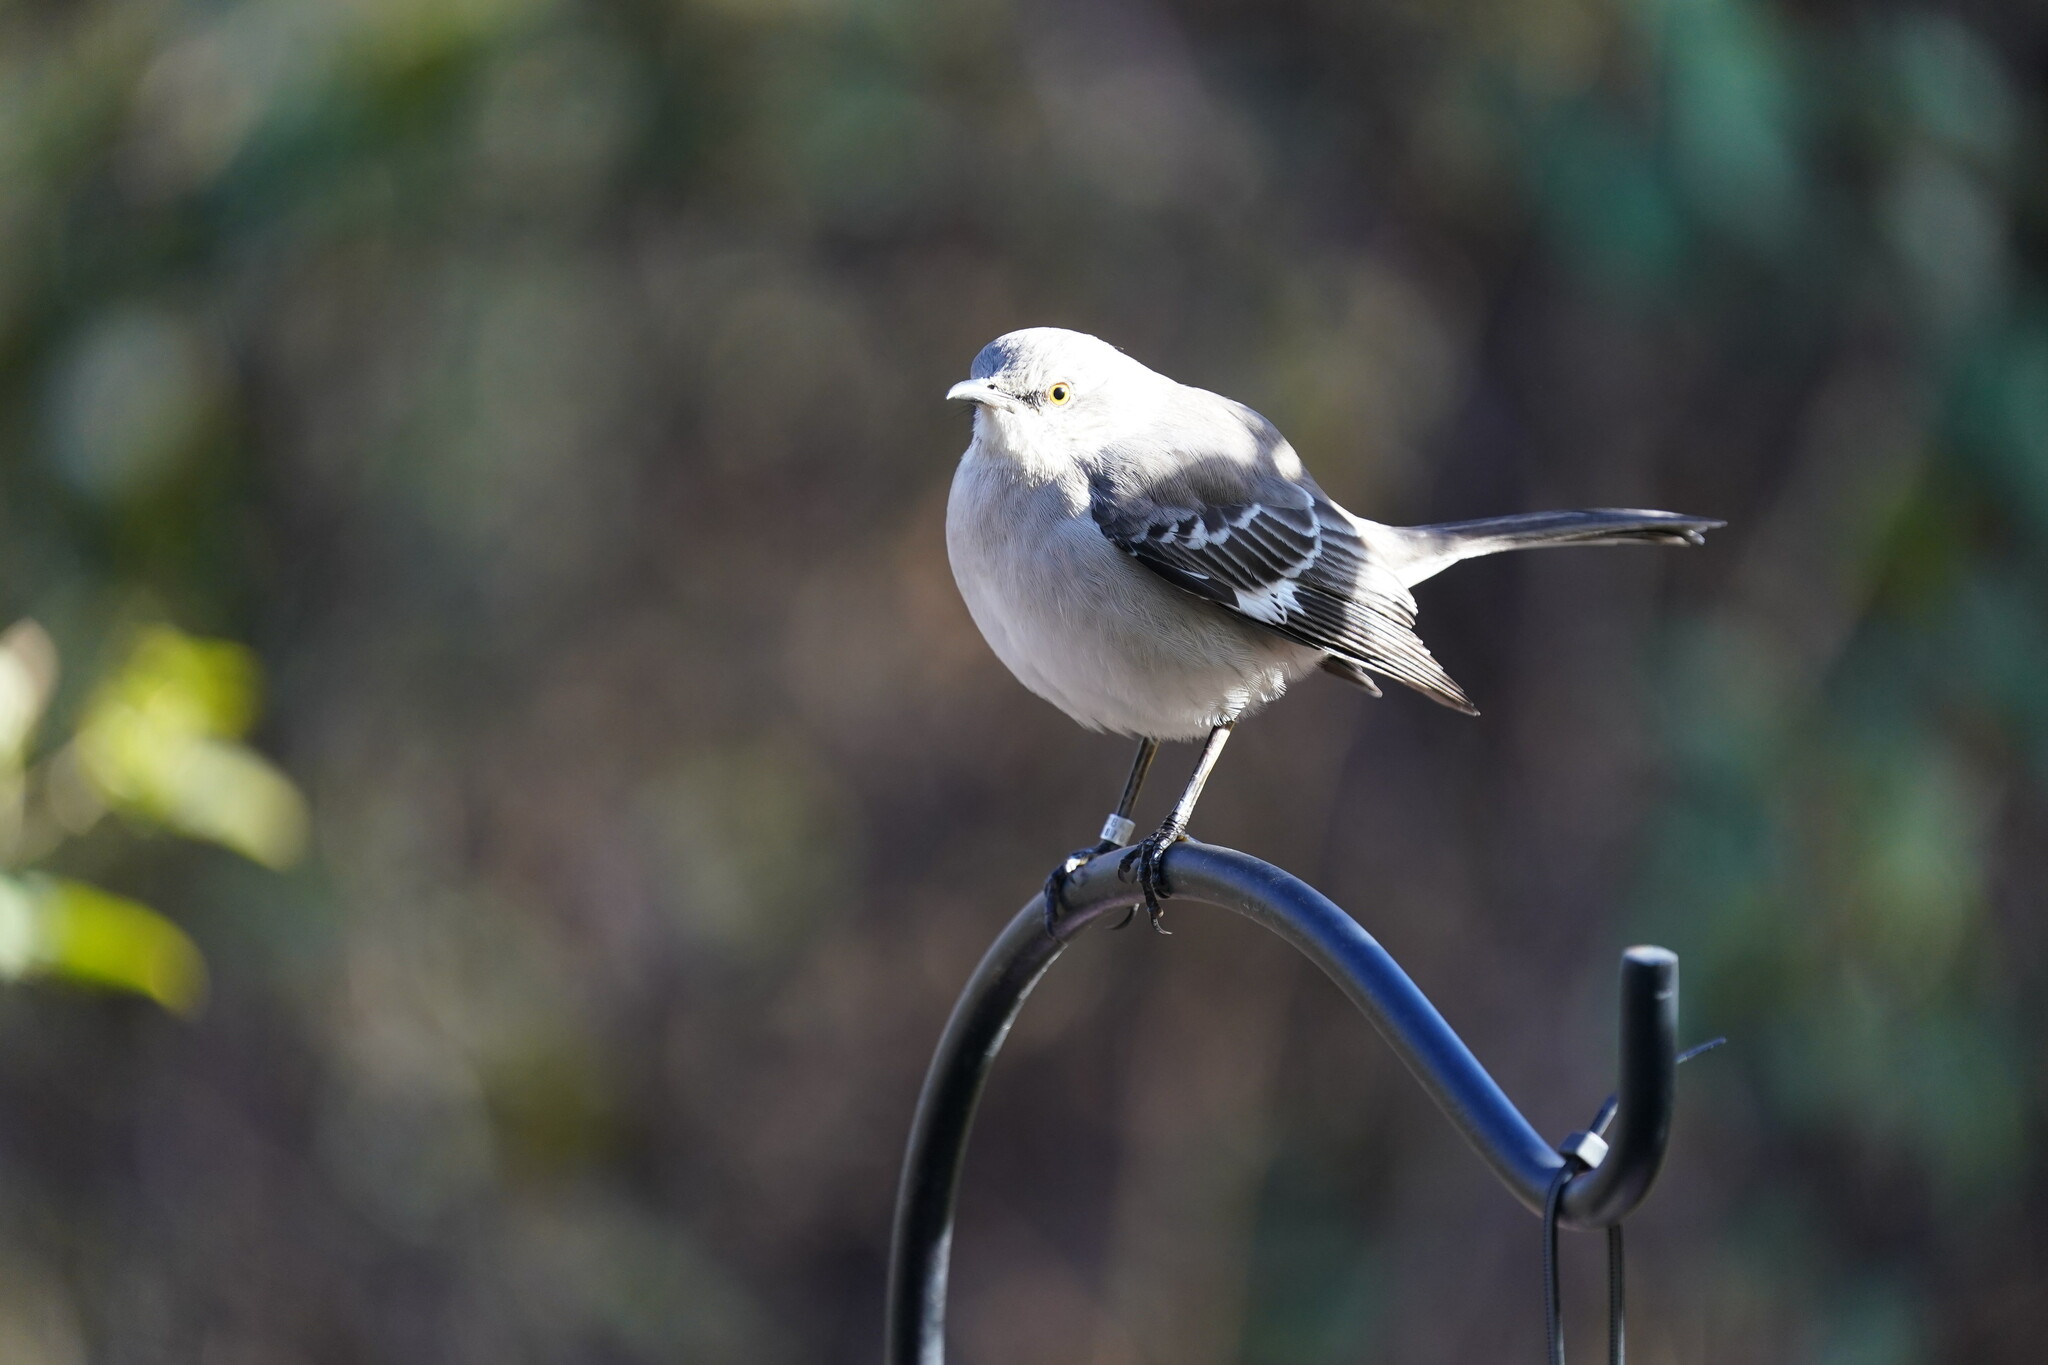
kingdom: Animalia
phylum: Chordata
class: Aves
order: Passeriformes
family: Mimidae
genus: Mimus
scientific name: Mimus polyglottos
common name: Northern mockingbird
